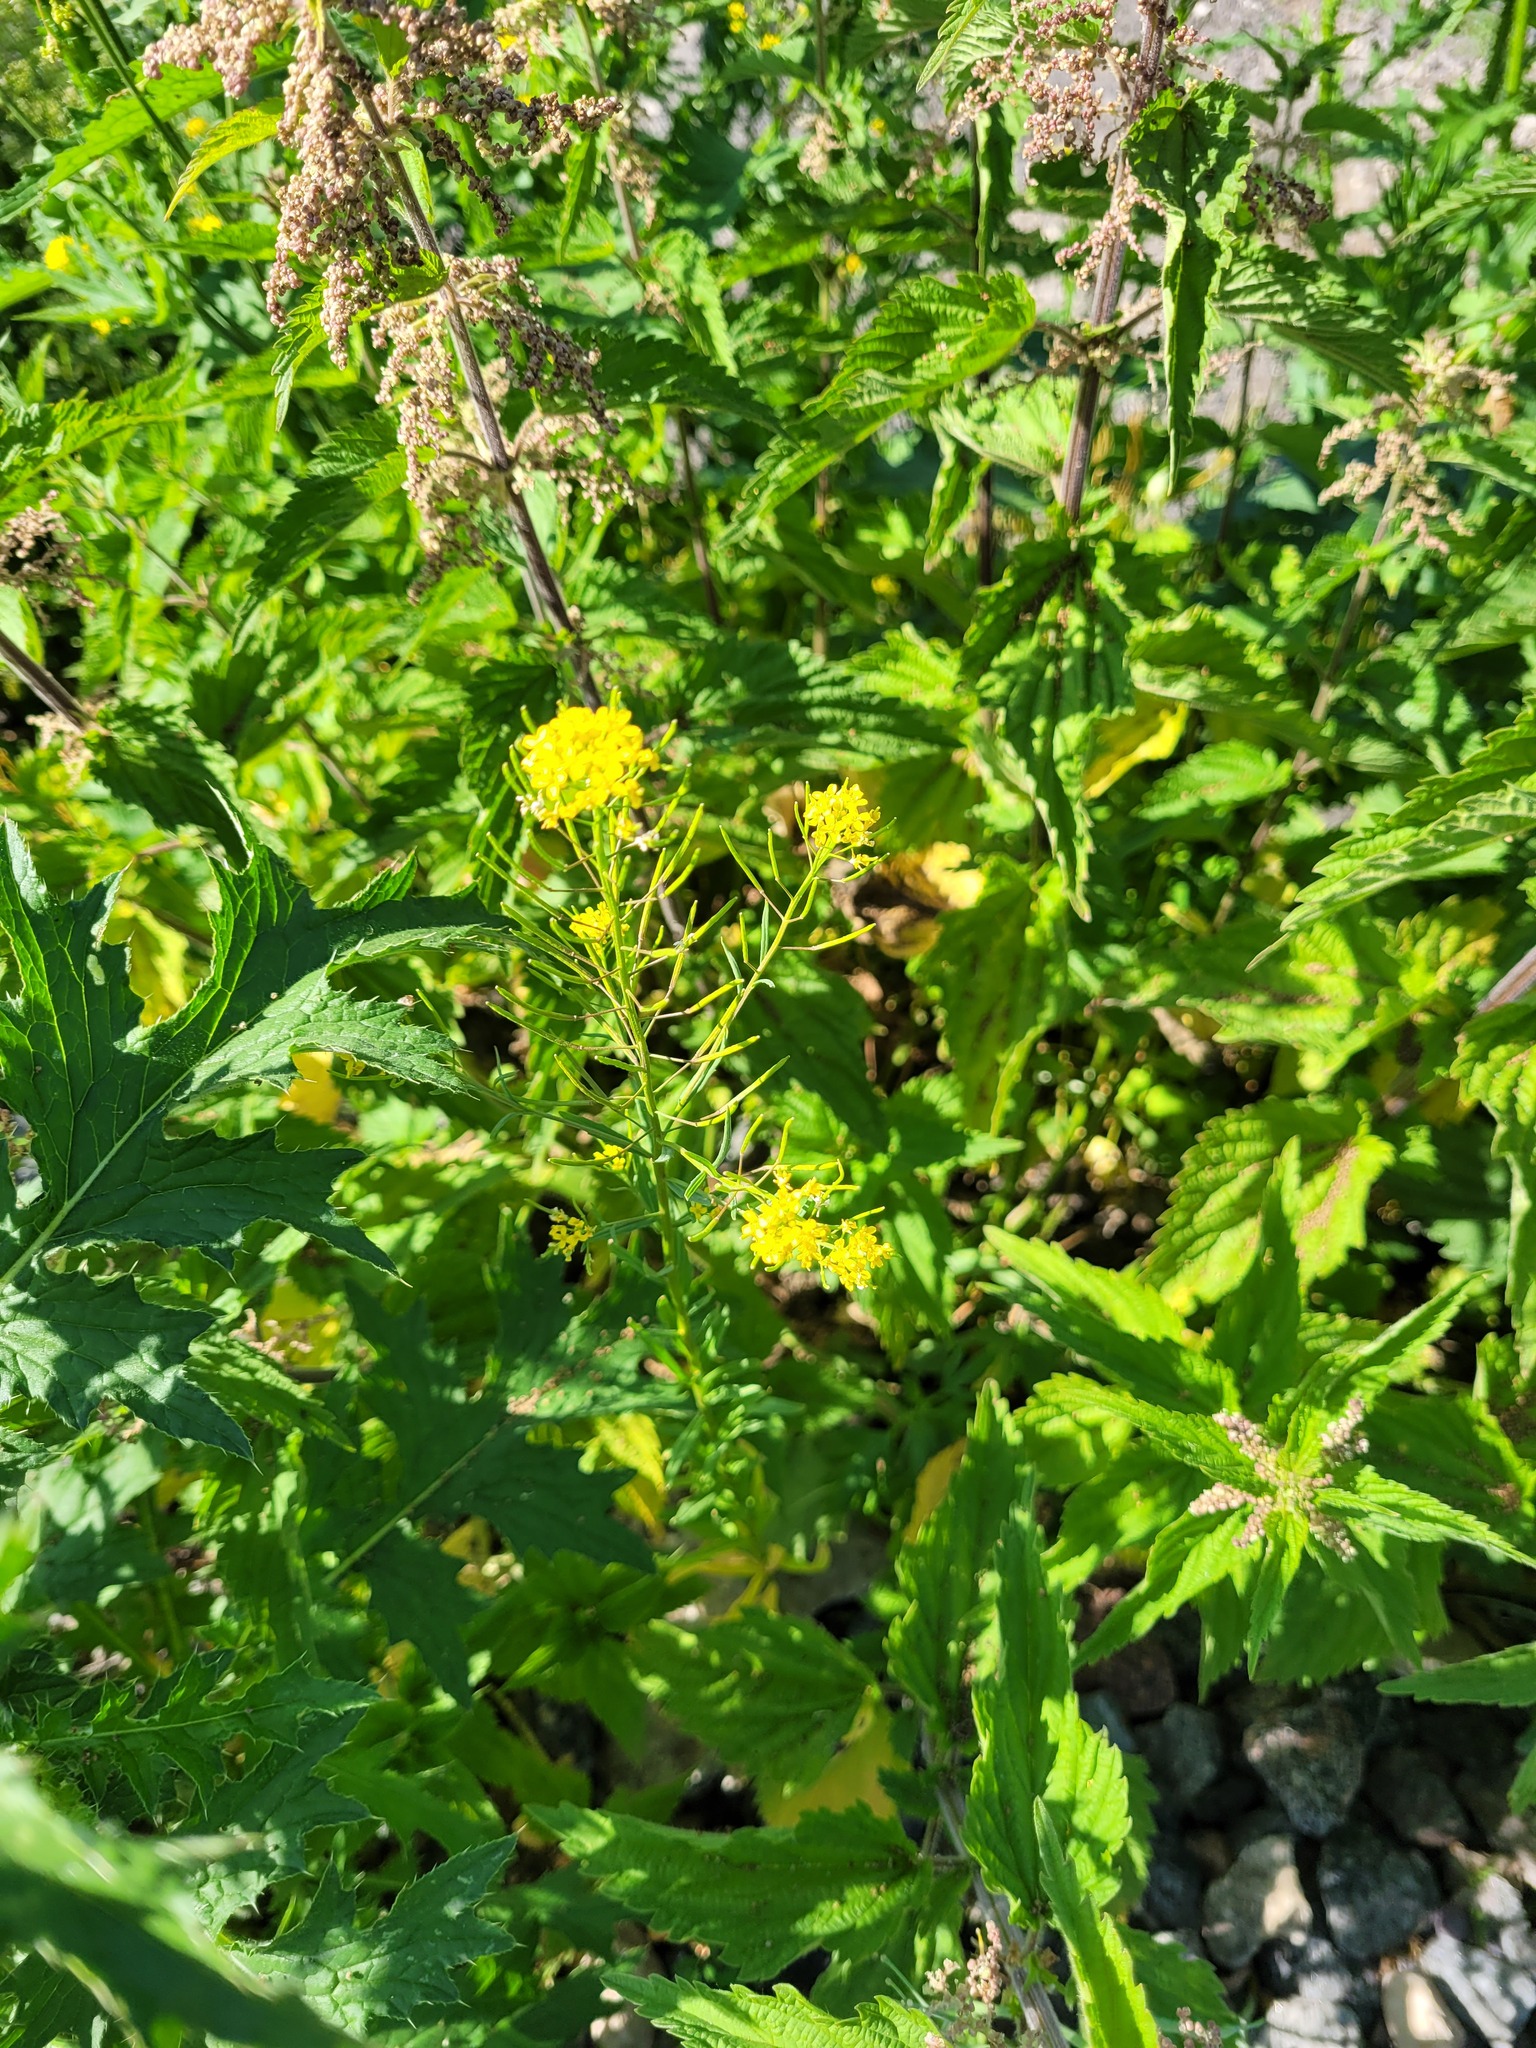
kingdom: Plantae
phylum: Tracheophyta
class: Magnoliopsida
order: Brassicales
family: Brassicaceae
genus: Erysimum
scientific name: Erysimum cheiranthoides
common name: Treacle mustard
